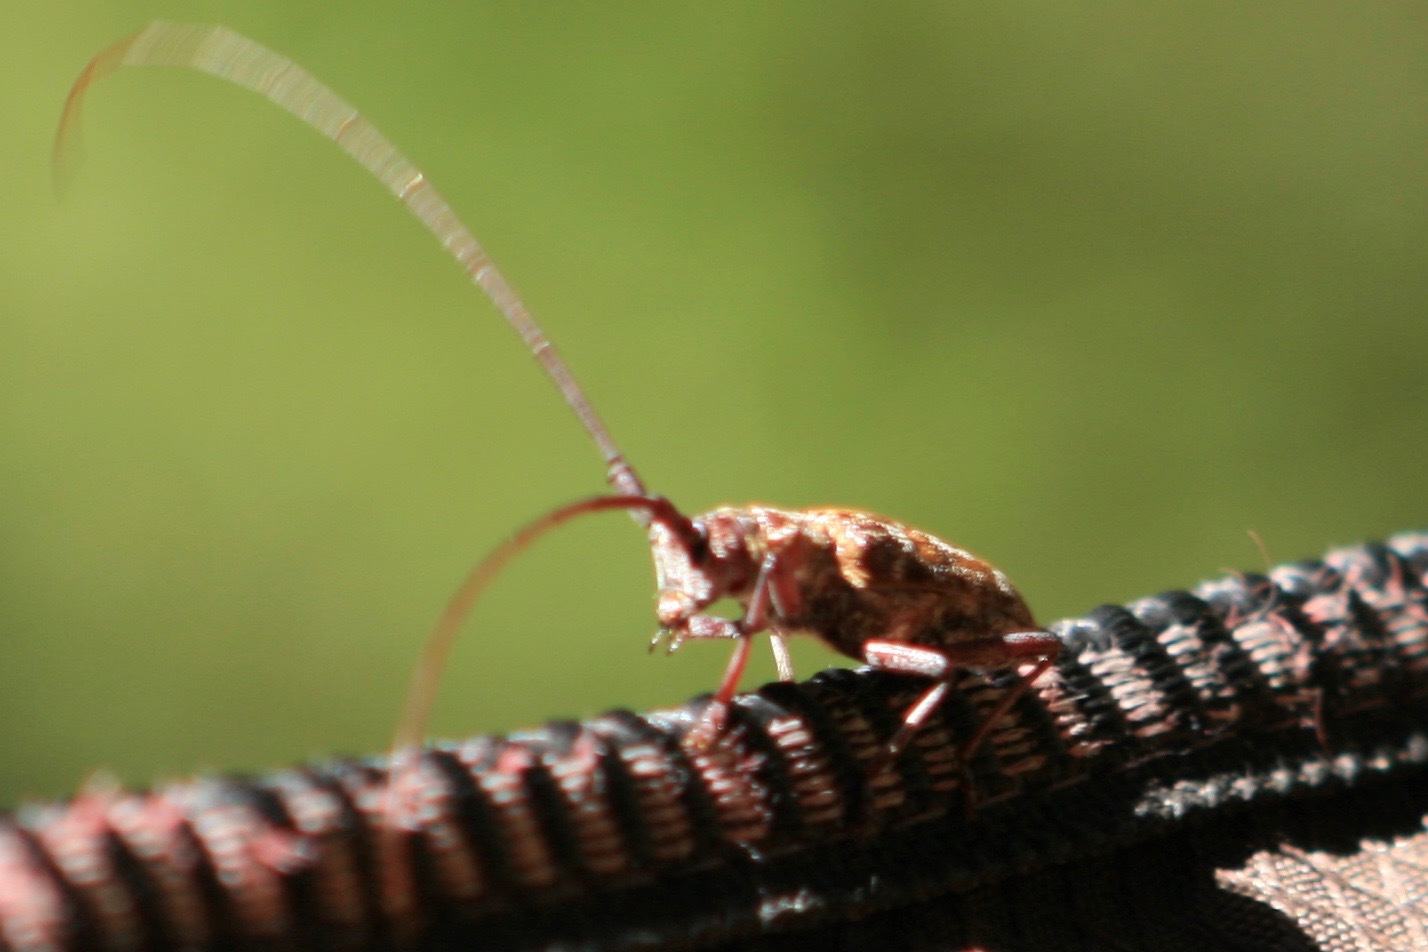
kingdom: Animalia
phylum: Arthropoda
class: Insecta
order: Coleoptera
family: Cerambycidae
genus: Monochamus
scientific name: Monochamus obtusus
